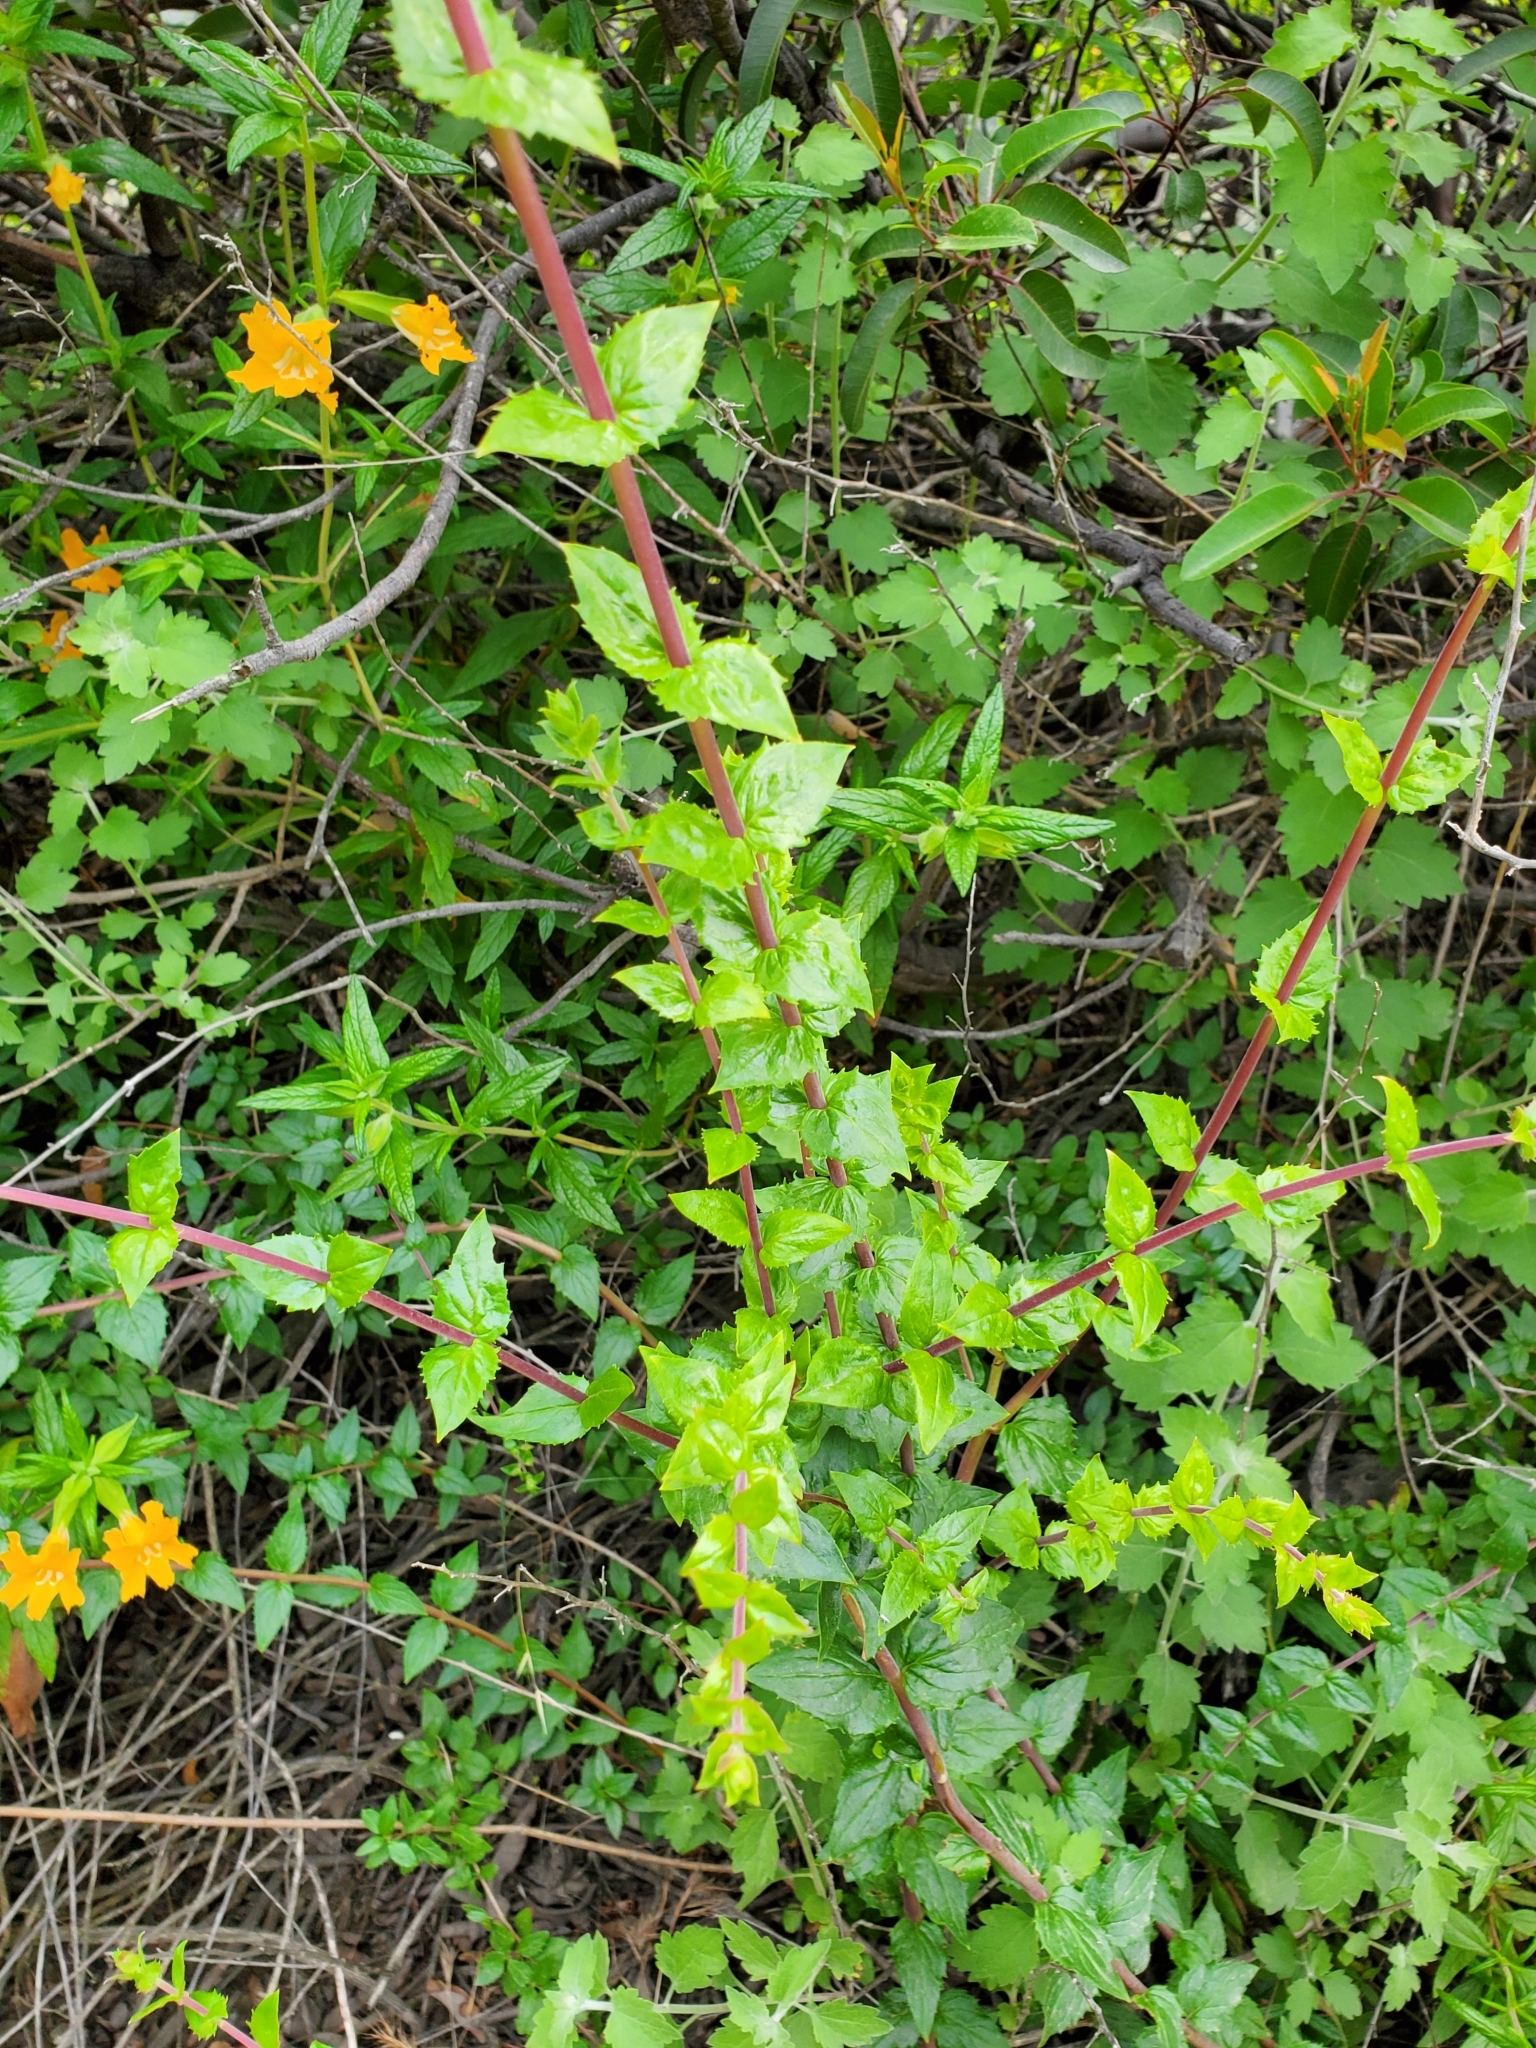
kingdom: Plantae
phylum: Tracheophyta
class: Magnoliopsida
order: Lamiales
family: Plantaginaceae
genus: Keckiella
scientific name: Keckiella cordifolia
